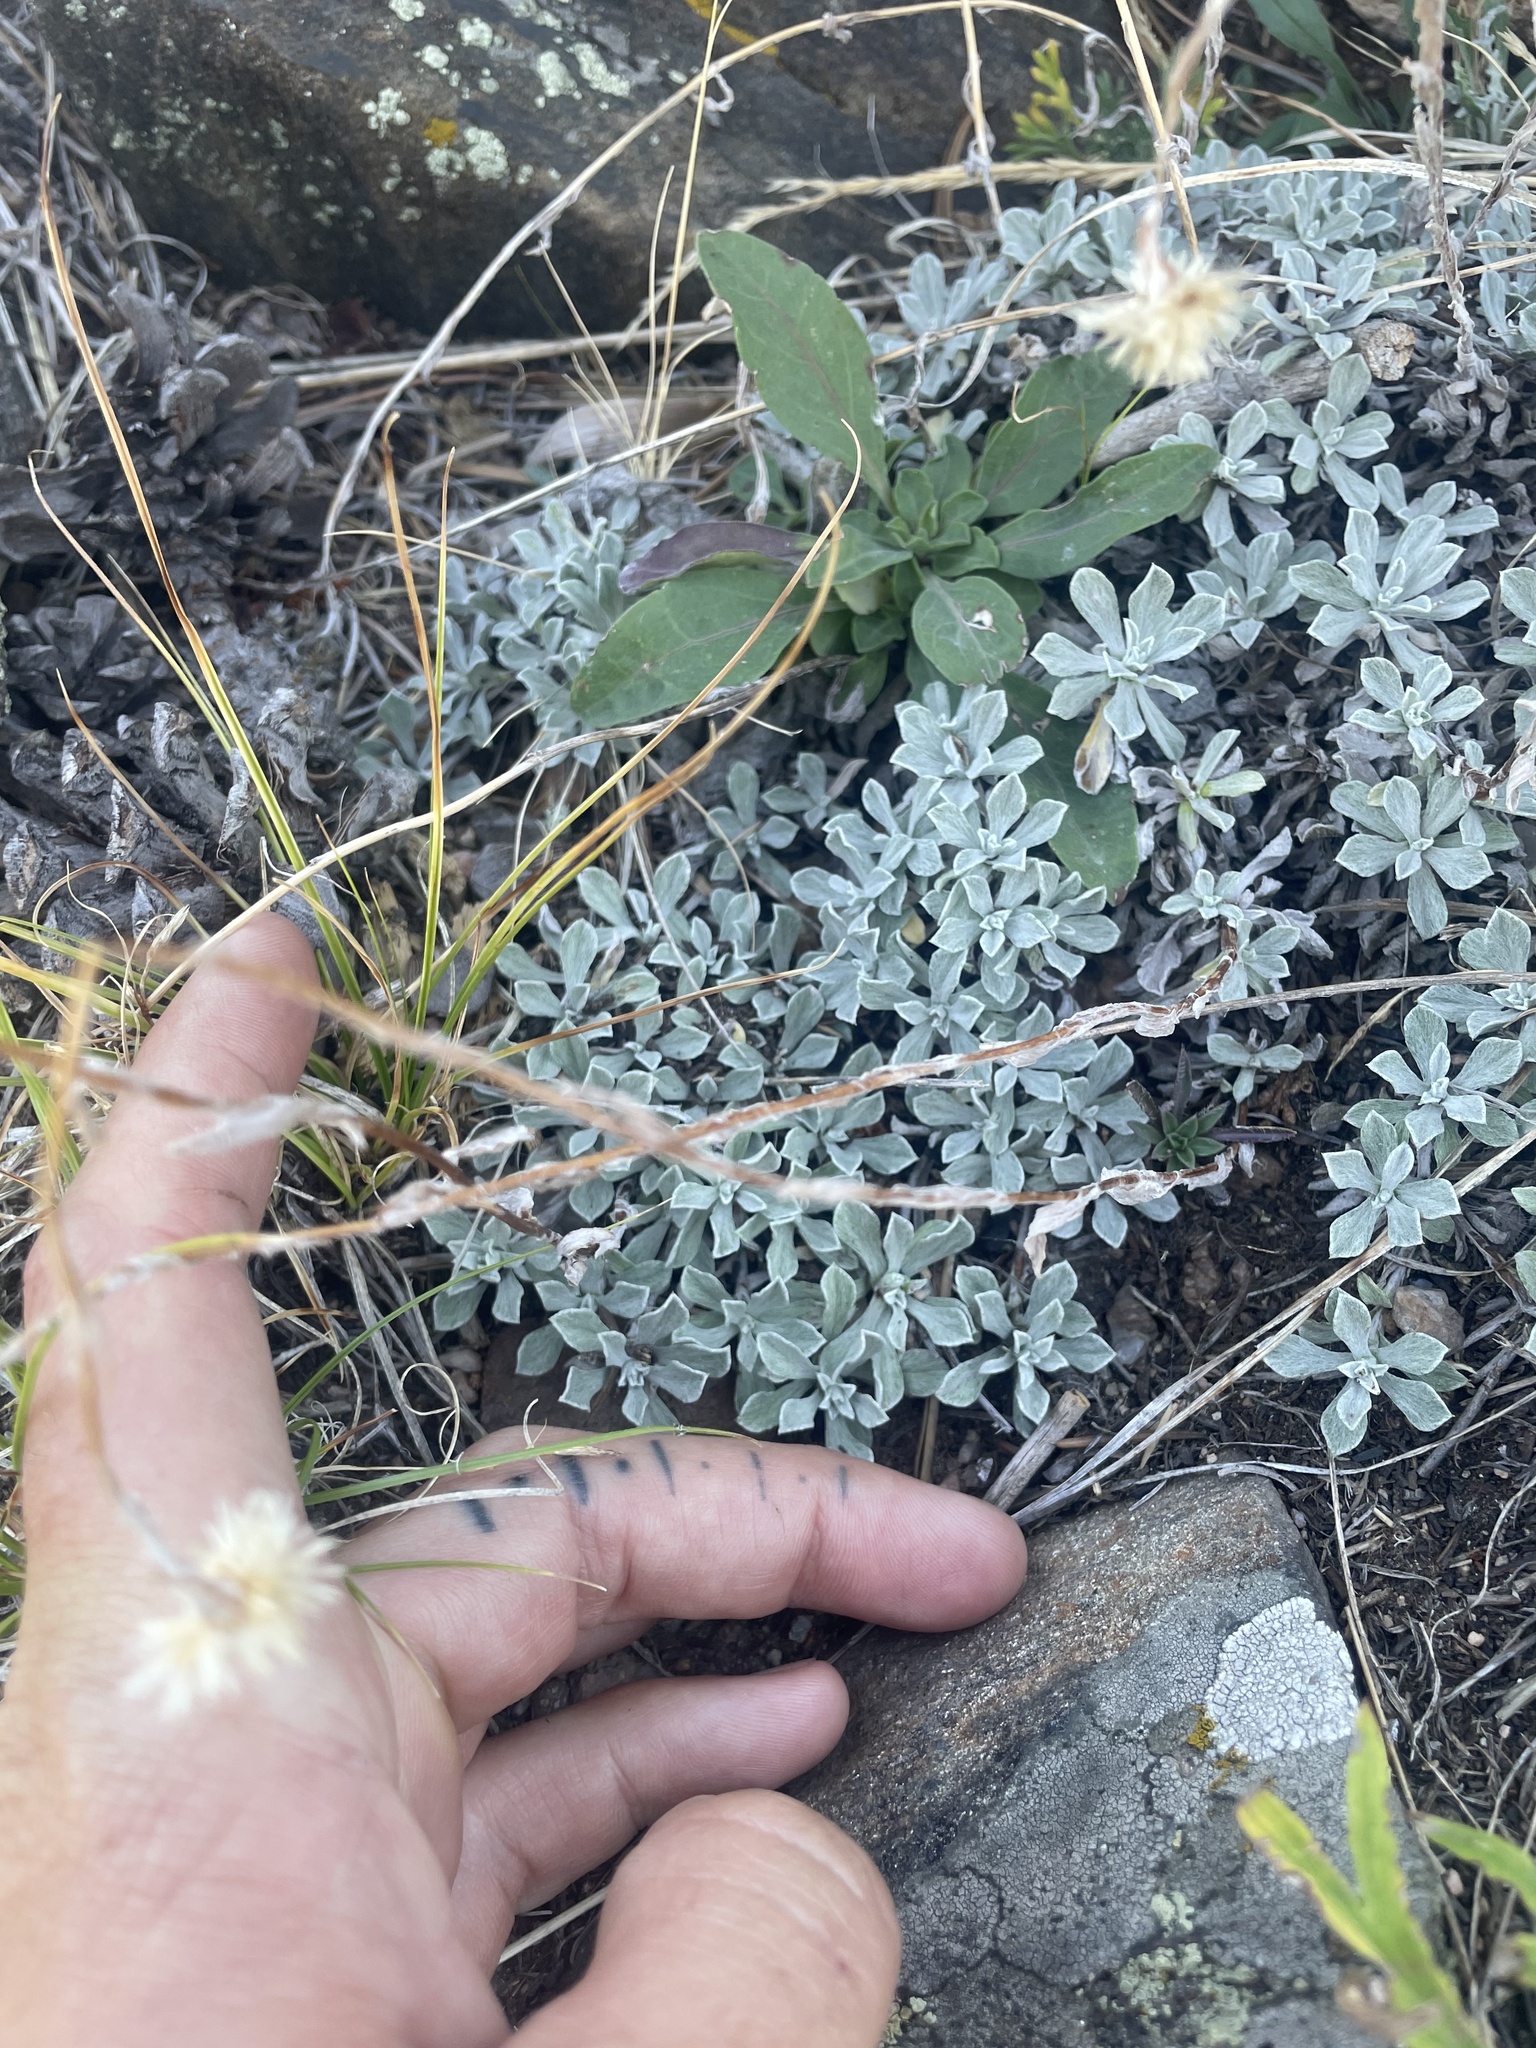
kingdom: Plantae
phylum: Tracheophyta
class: Magnoliopsida
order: Asterales
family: Asteraceae
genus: Antennaria
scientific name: Antennaria parvifolia
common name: Nuttall's pussytoes
